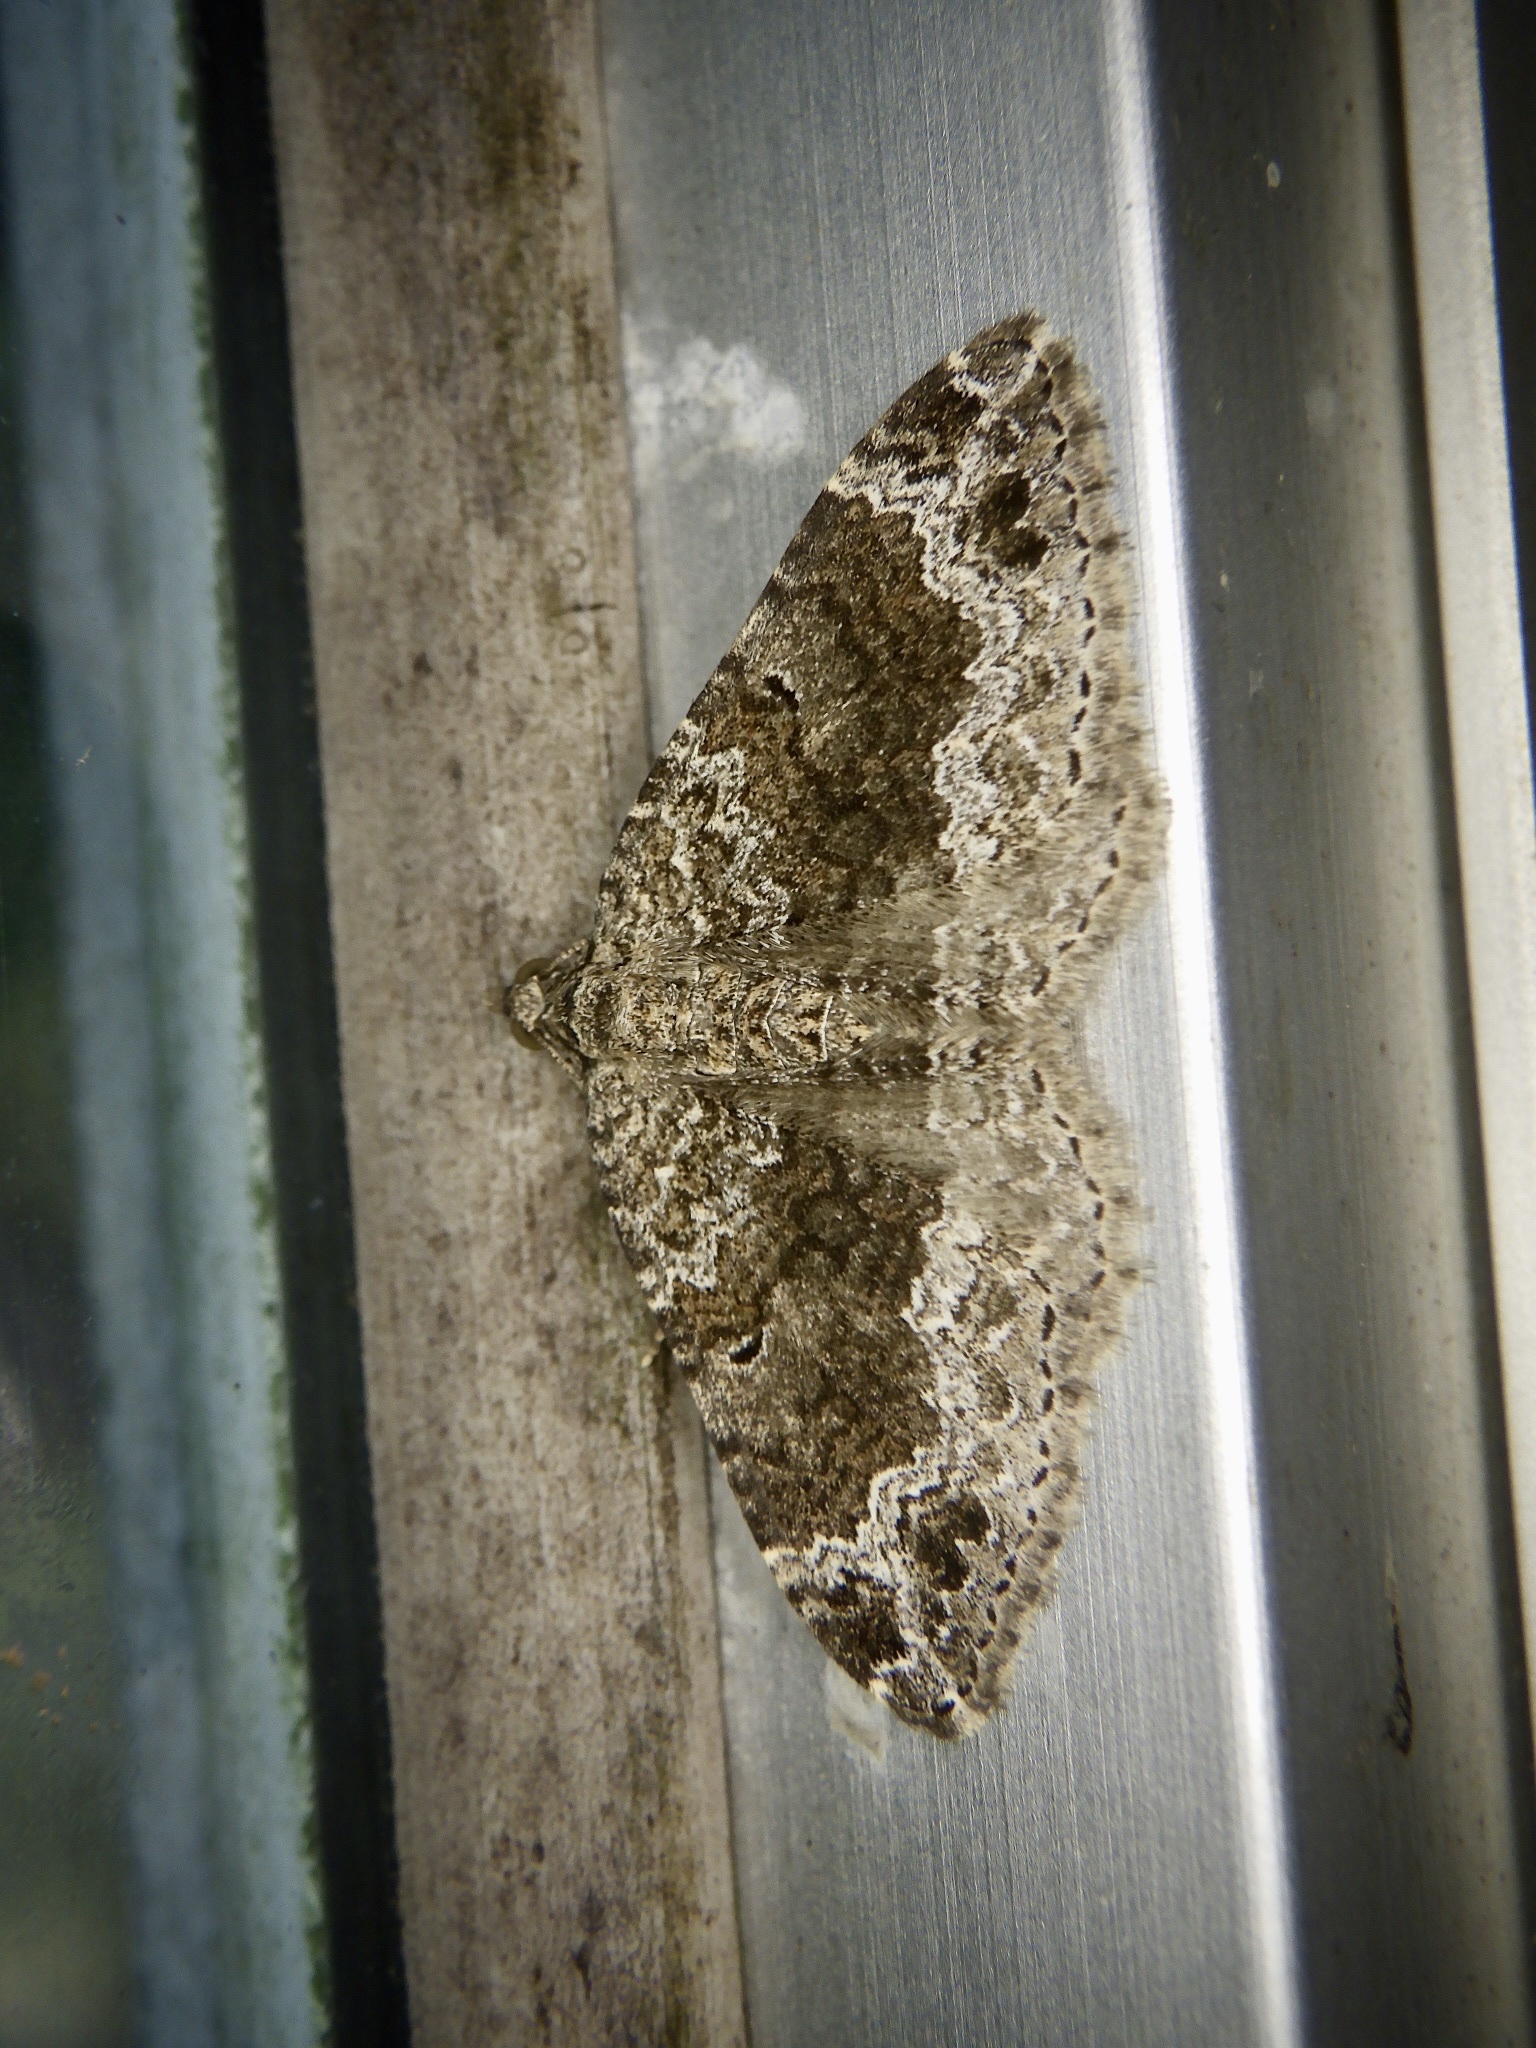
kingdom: Animalia
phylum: Arthropoda
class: Insecta
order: Lepidoptera
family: Geometridae
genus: Xanthorhoe
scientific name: Xanthorhoe saturata
